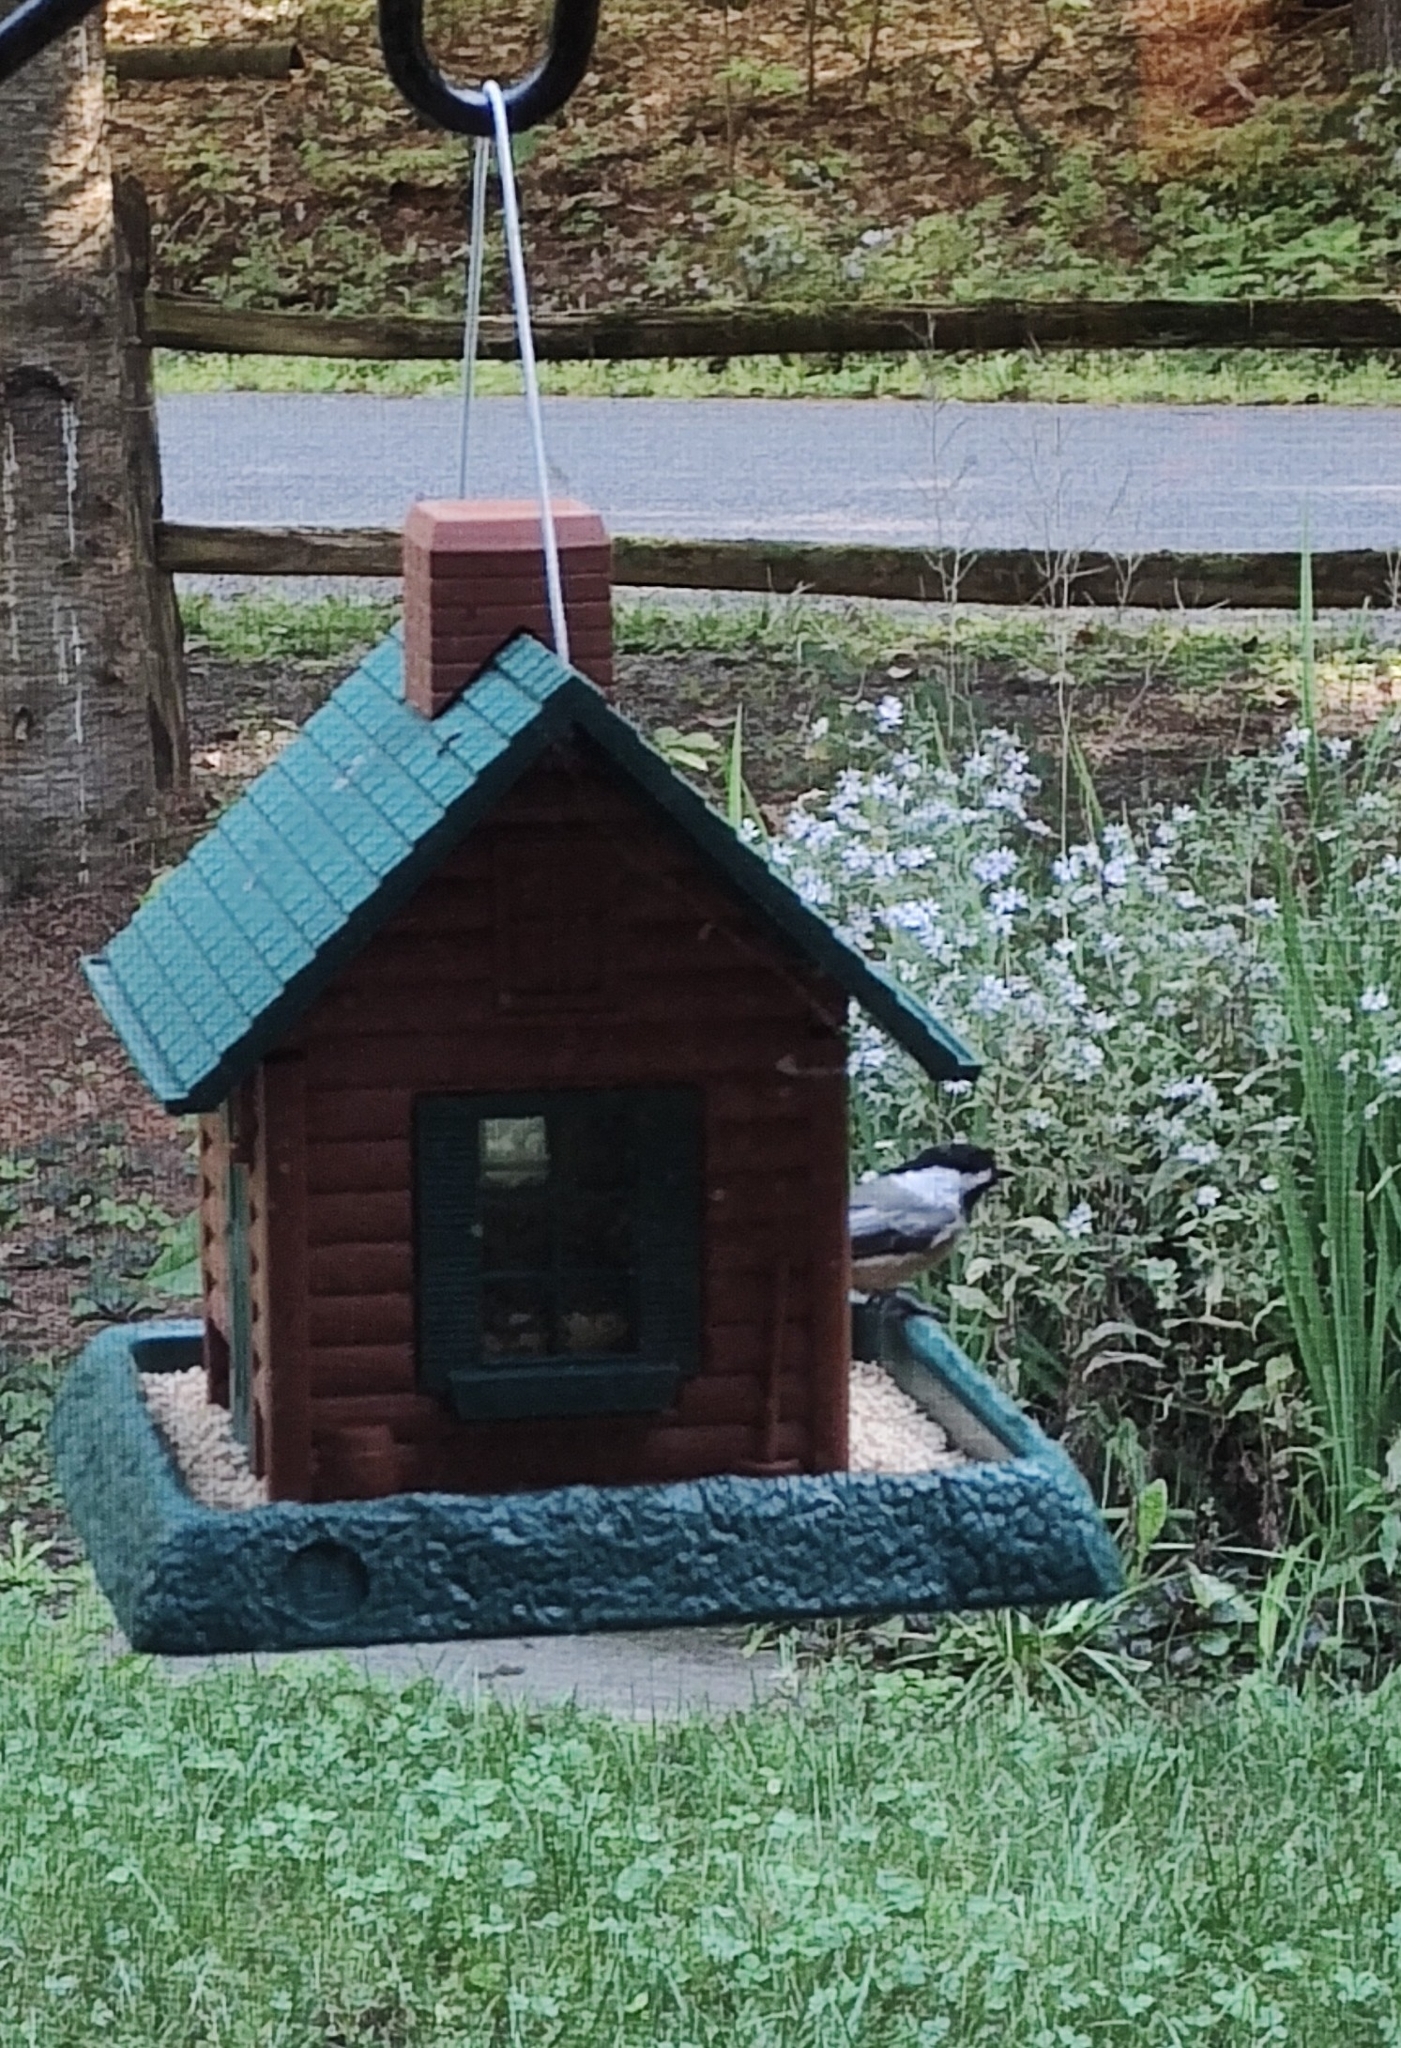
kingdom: Animalia
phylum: Chordata
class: Aves
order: Passeriformes
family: Paridae
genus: Poecile
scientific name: Poecile atricapillus
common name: Black-capped chickadee
